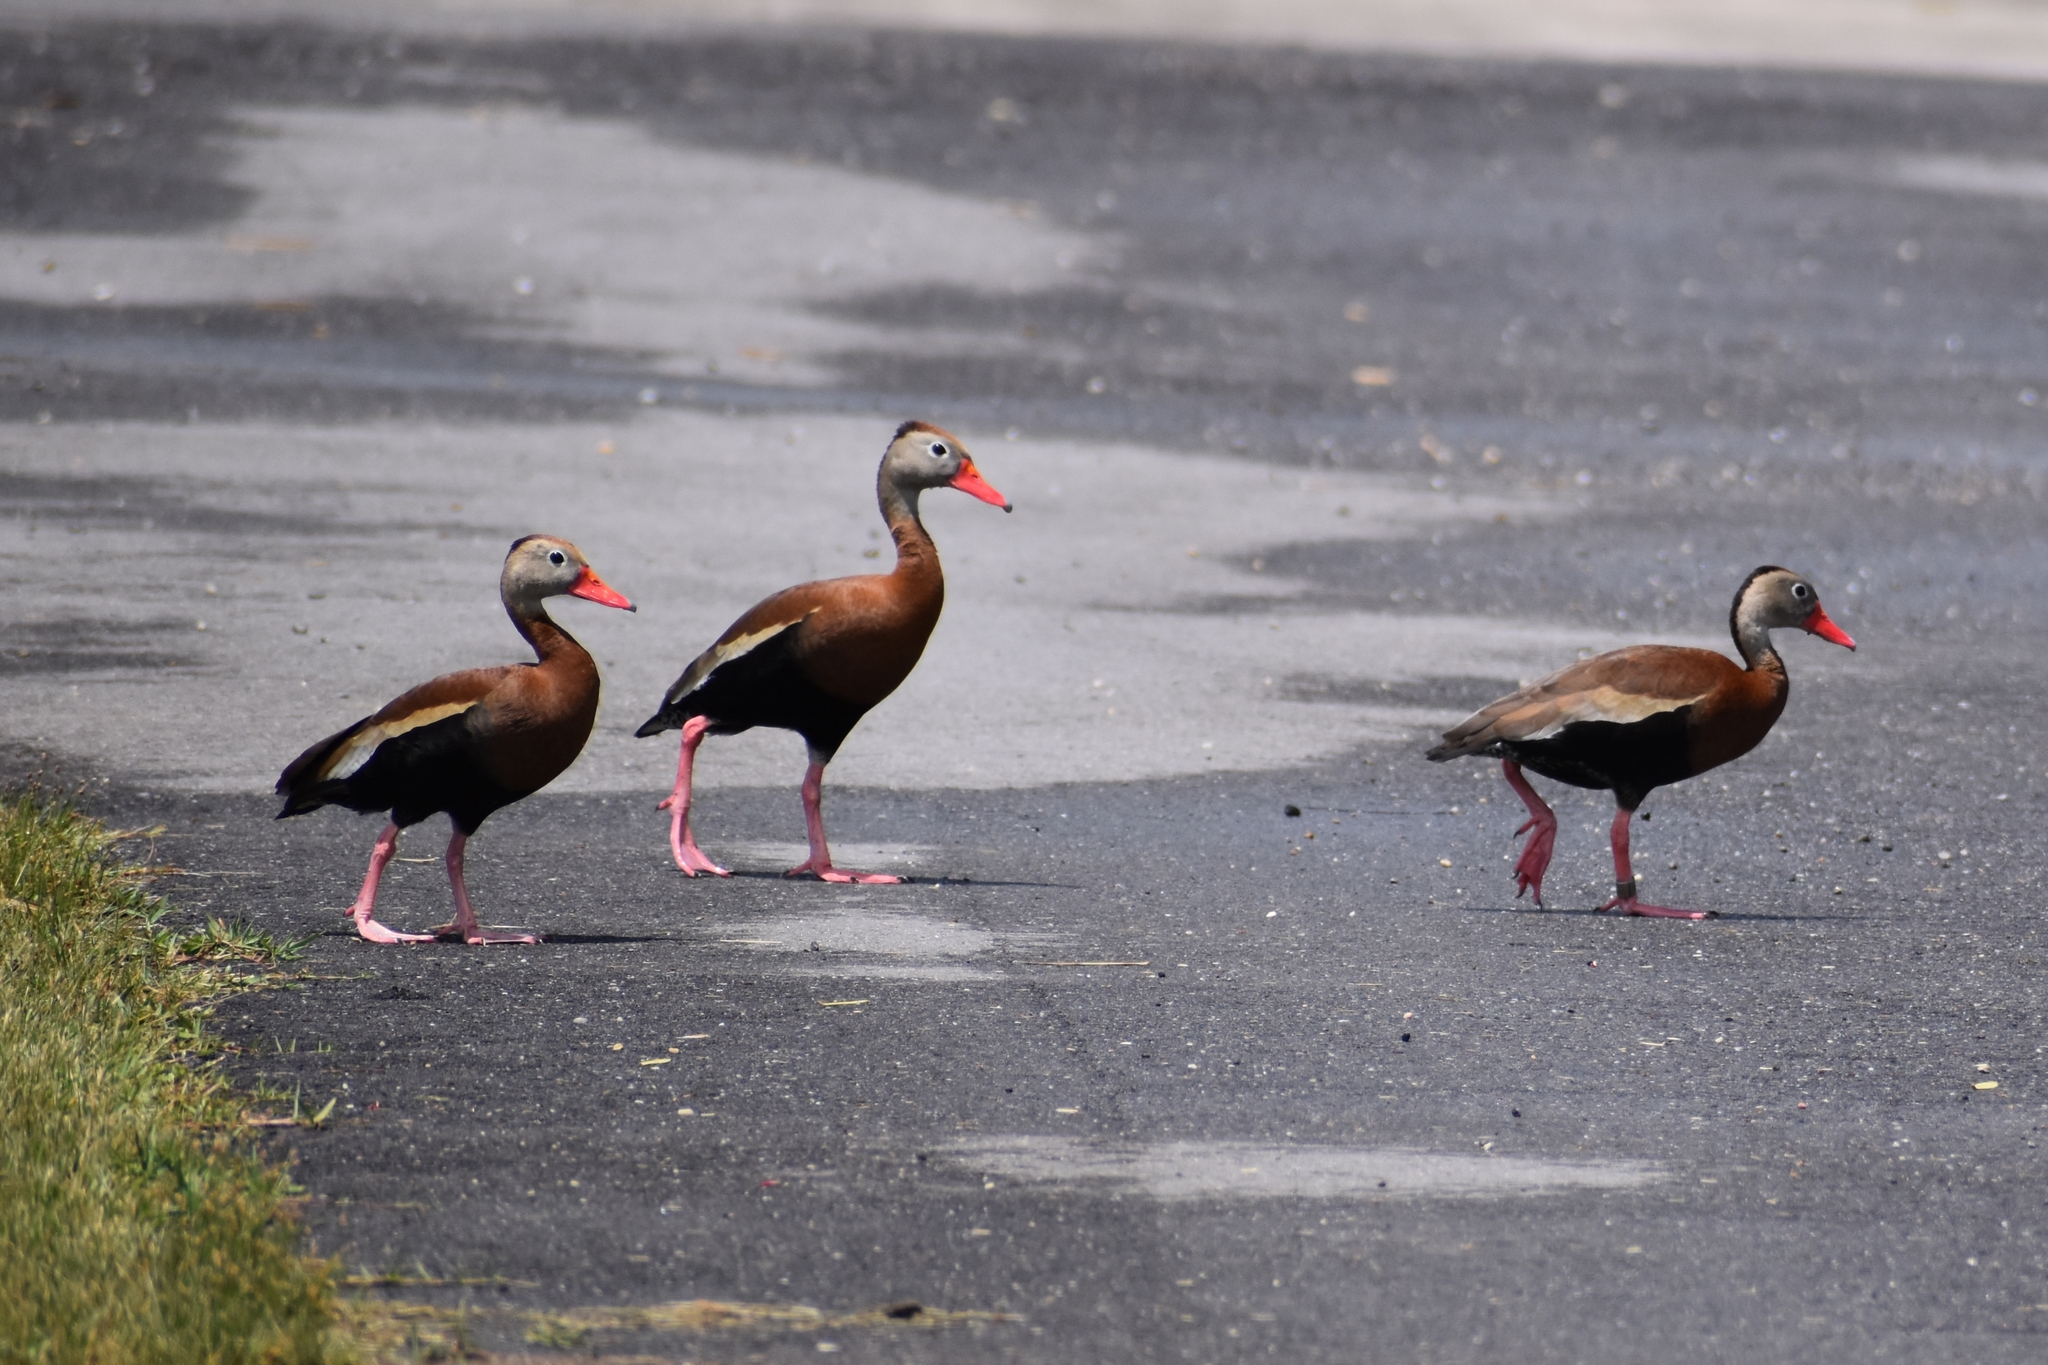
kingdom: Animalia
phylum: Chordata
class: Aves
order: Anseriformes
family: Anatidae
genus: Dendrocygna
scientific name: Dendrocygna autumnalis
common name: Black-bellied whistling duck
